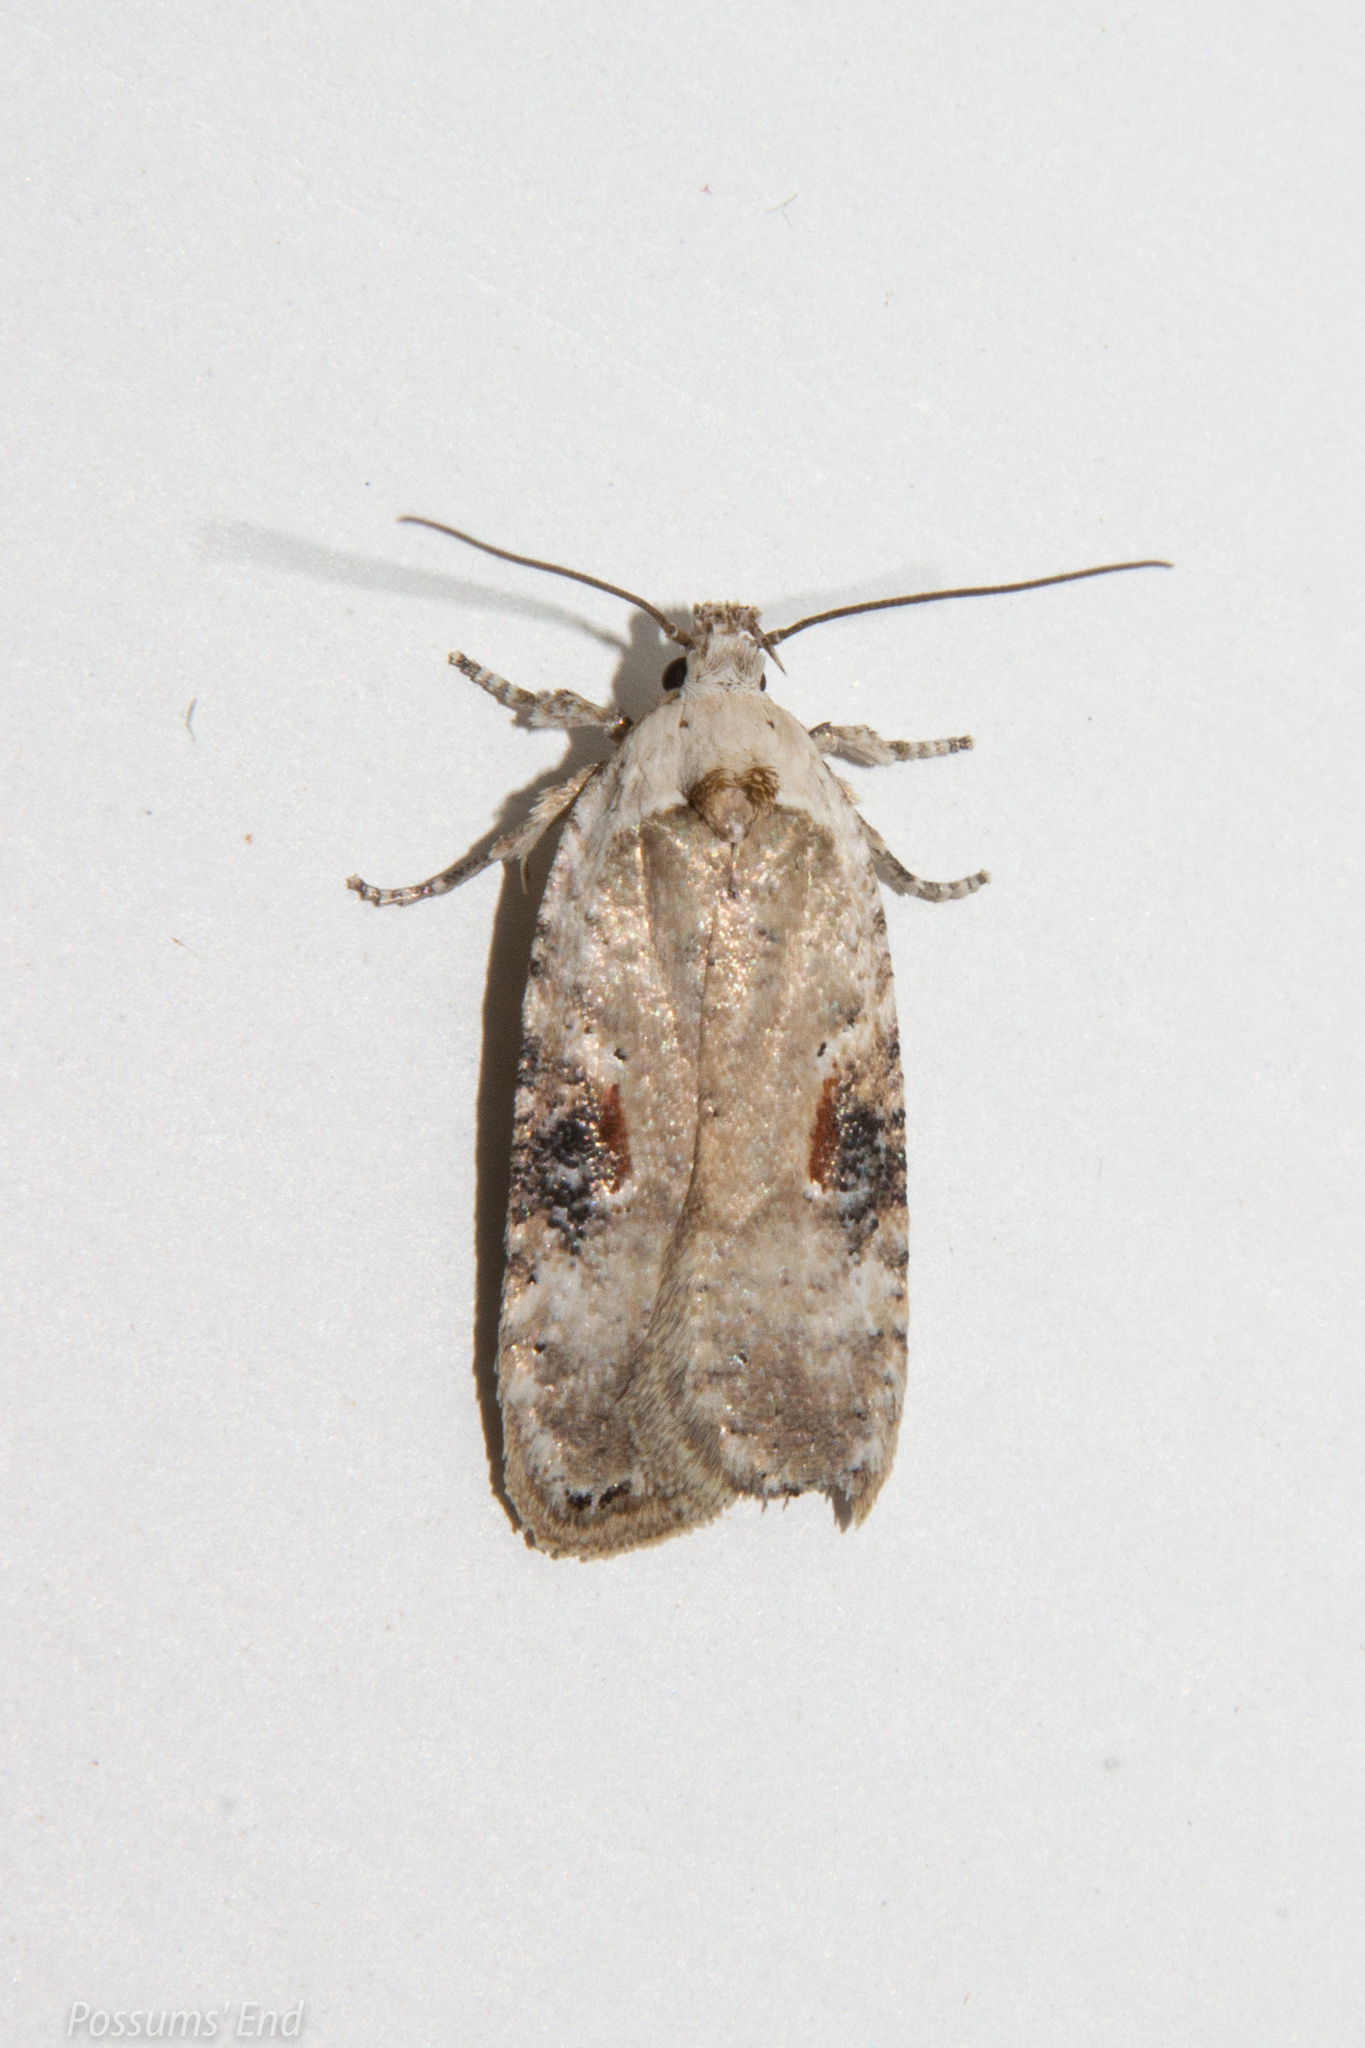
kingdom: Animalia
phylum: Arthropoda
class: Insecta
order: Lepidoptera
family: Depressariidae
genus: Agonopterix
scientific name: Agonopterix alstroemeriana
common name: Moth
